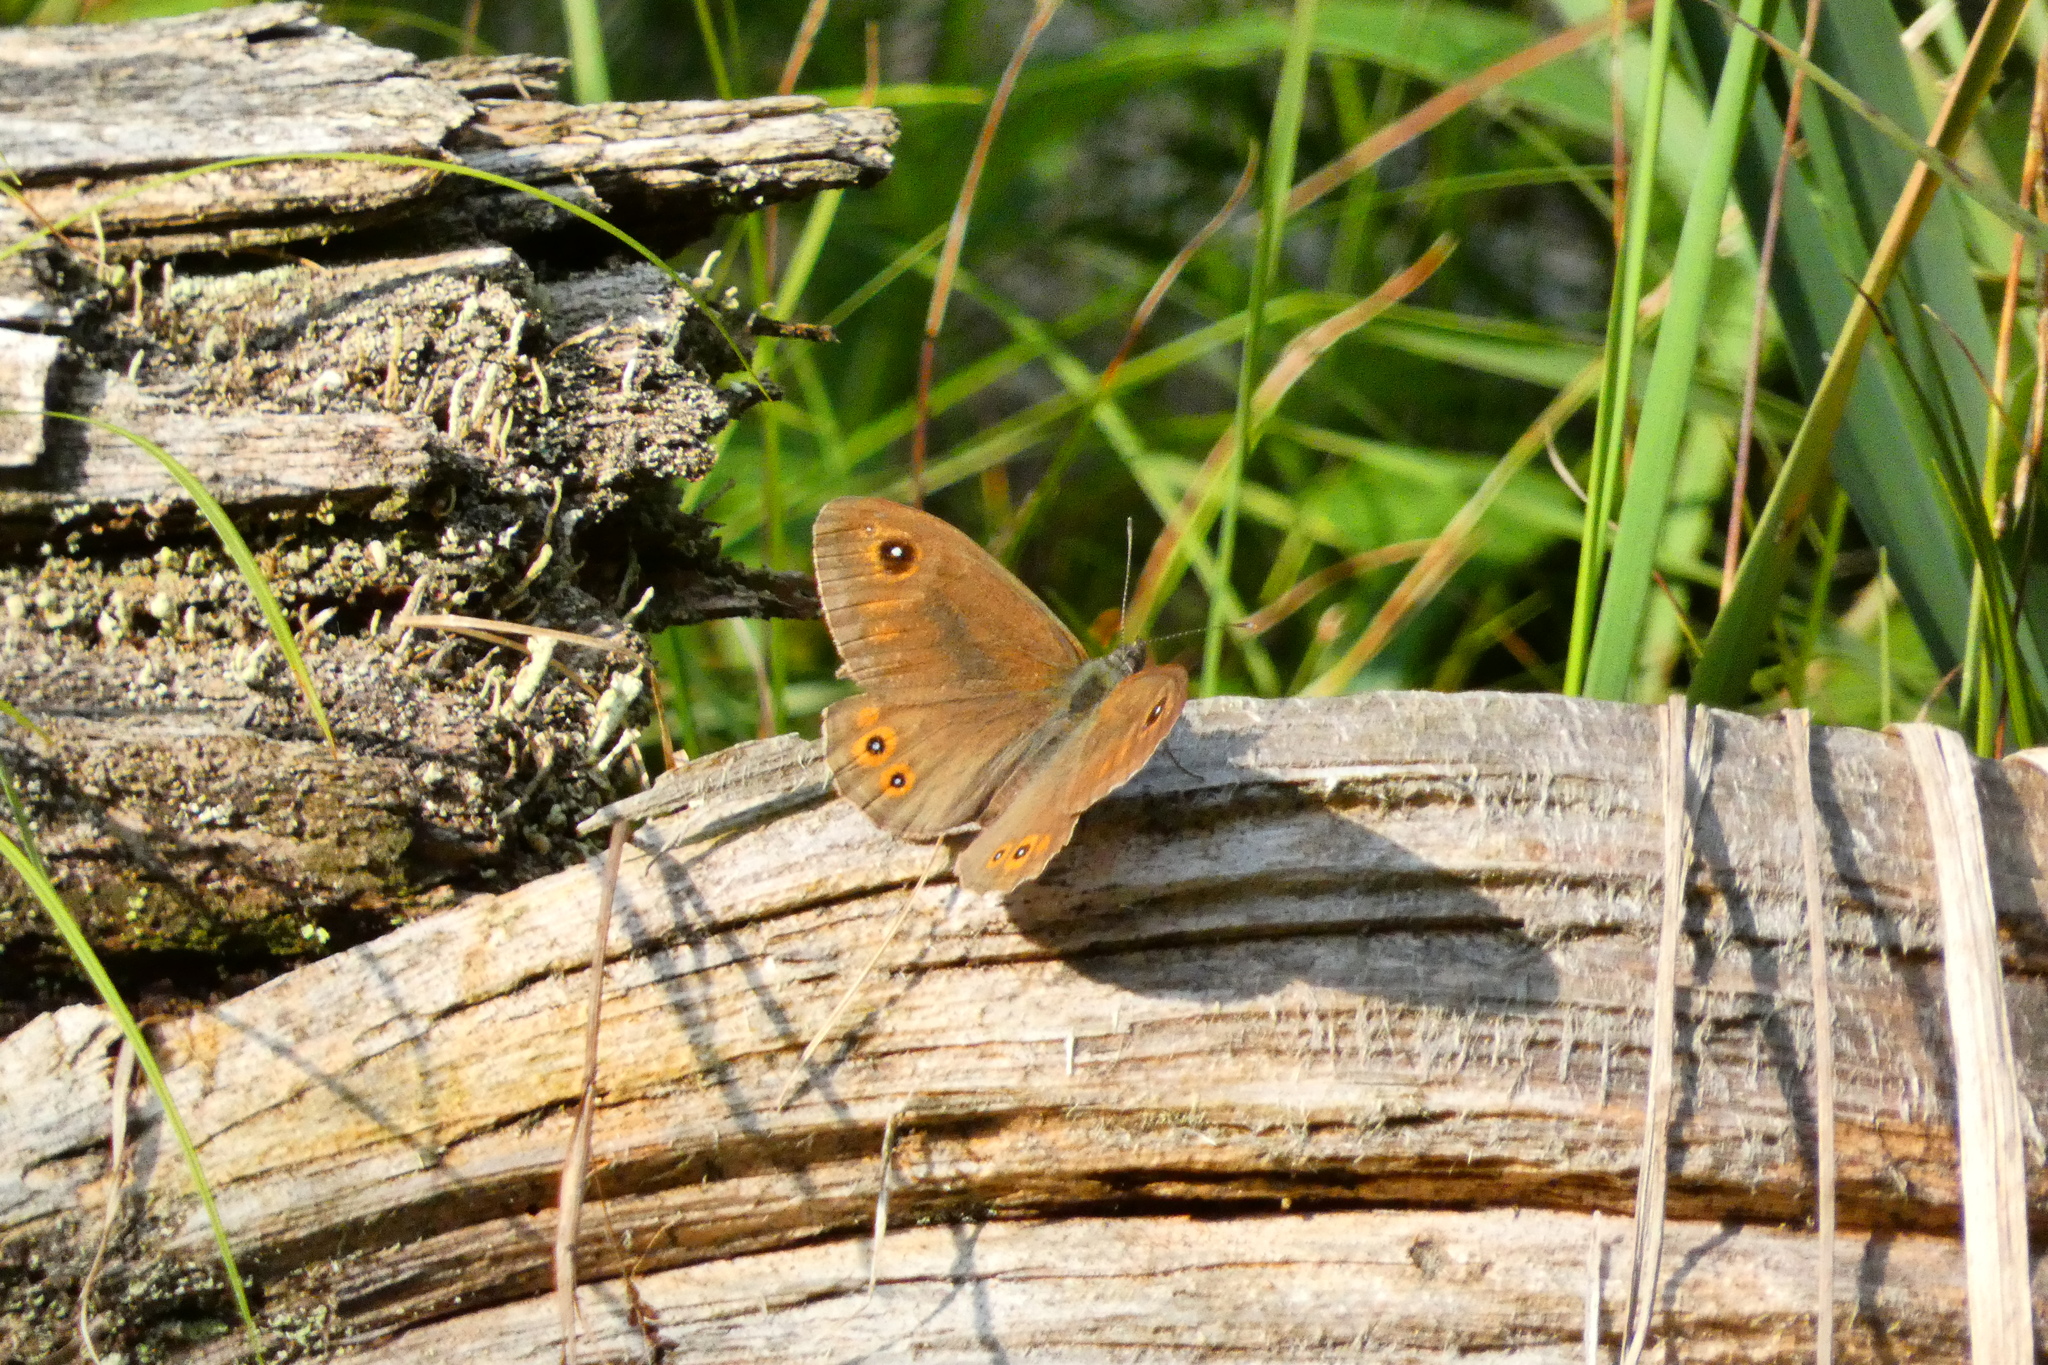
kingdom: Animalia
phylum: Arthropoda
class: Insecta
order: Lepidoptera
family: Nymphalidae
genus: Pararge
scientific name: Pararge Lasiommata maera
